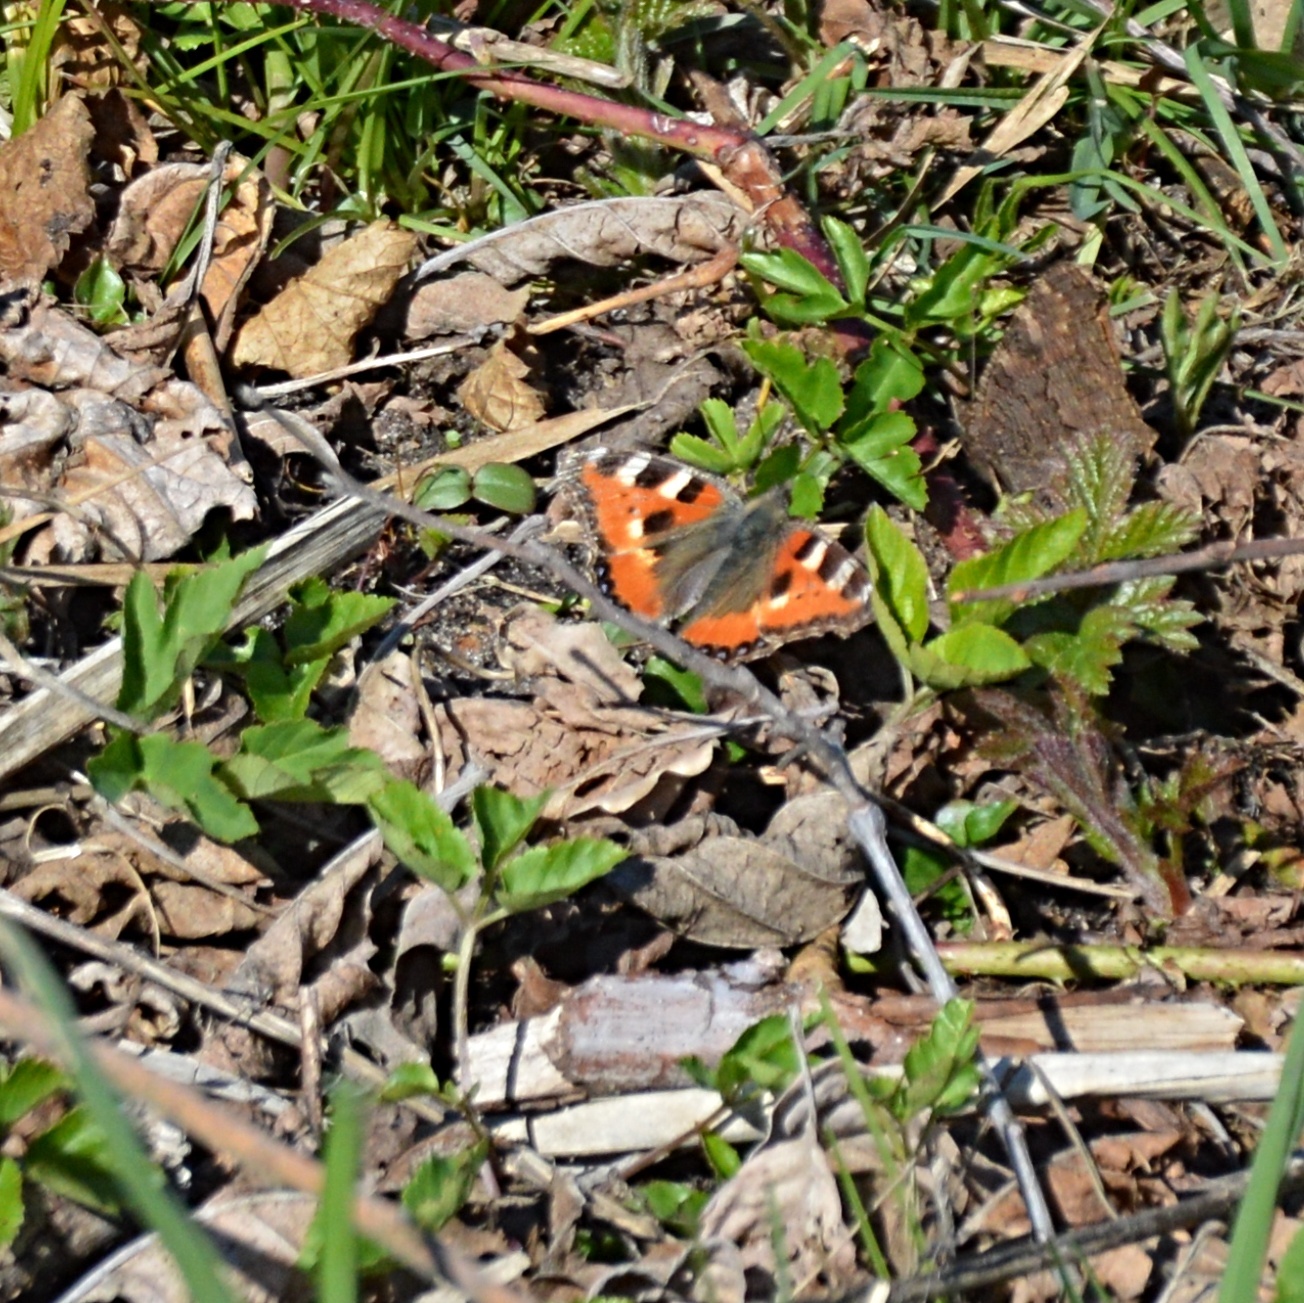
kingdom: Animalia
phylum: Arthropoda
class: Insecta
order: Lepidoptera
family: Nymphalidae
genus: Aglais
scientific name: Aglais urticae
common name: Small tortoiseshell
